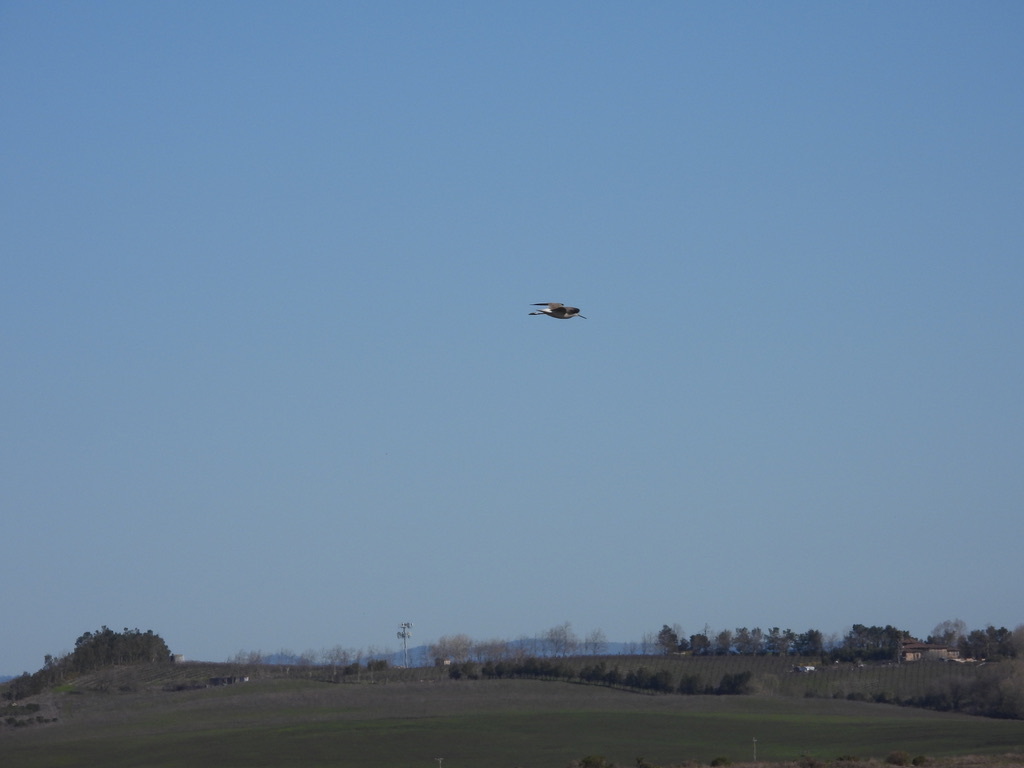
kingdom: Animalia
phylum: Chordata
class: Aves
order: Charadriiformes
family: Scolopacidae
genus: Tringa
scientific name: Tringa melanoleuca
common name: Greater yellowlegs
